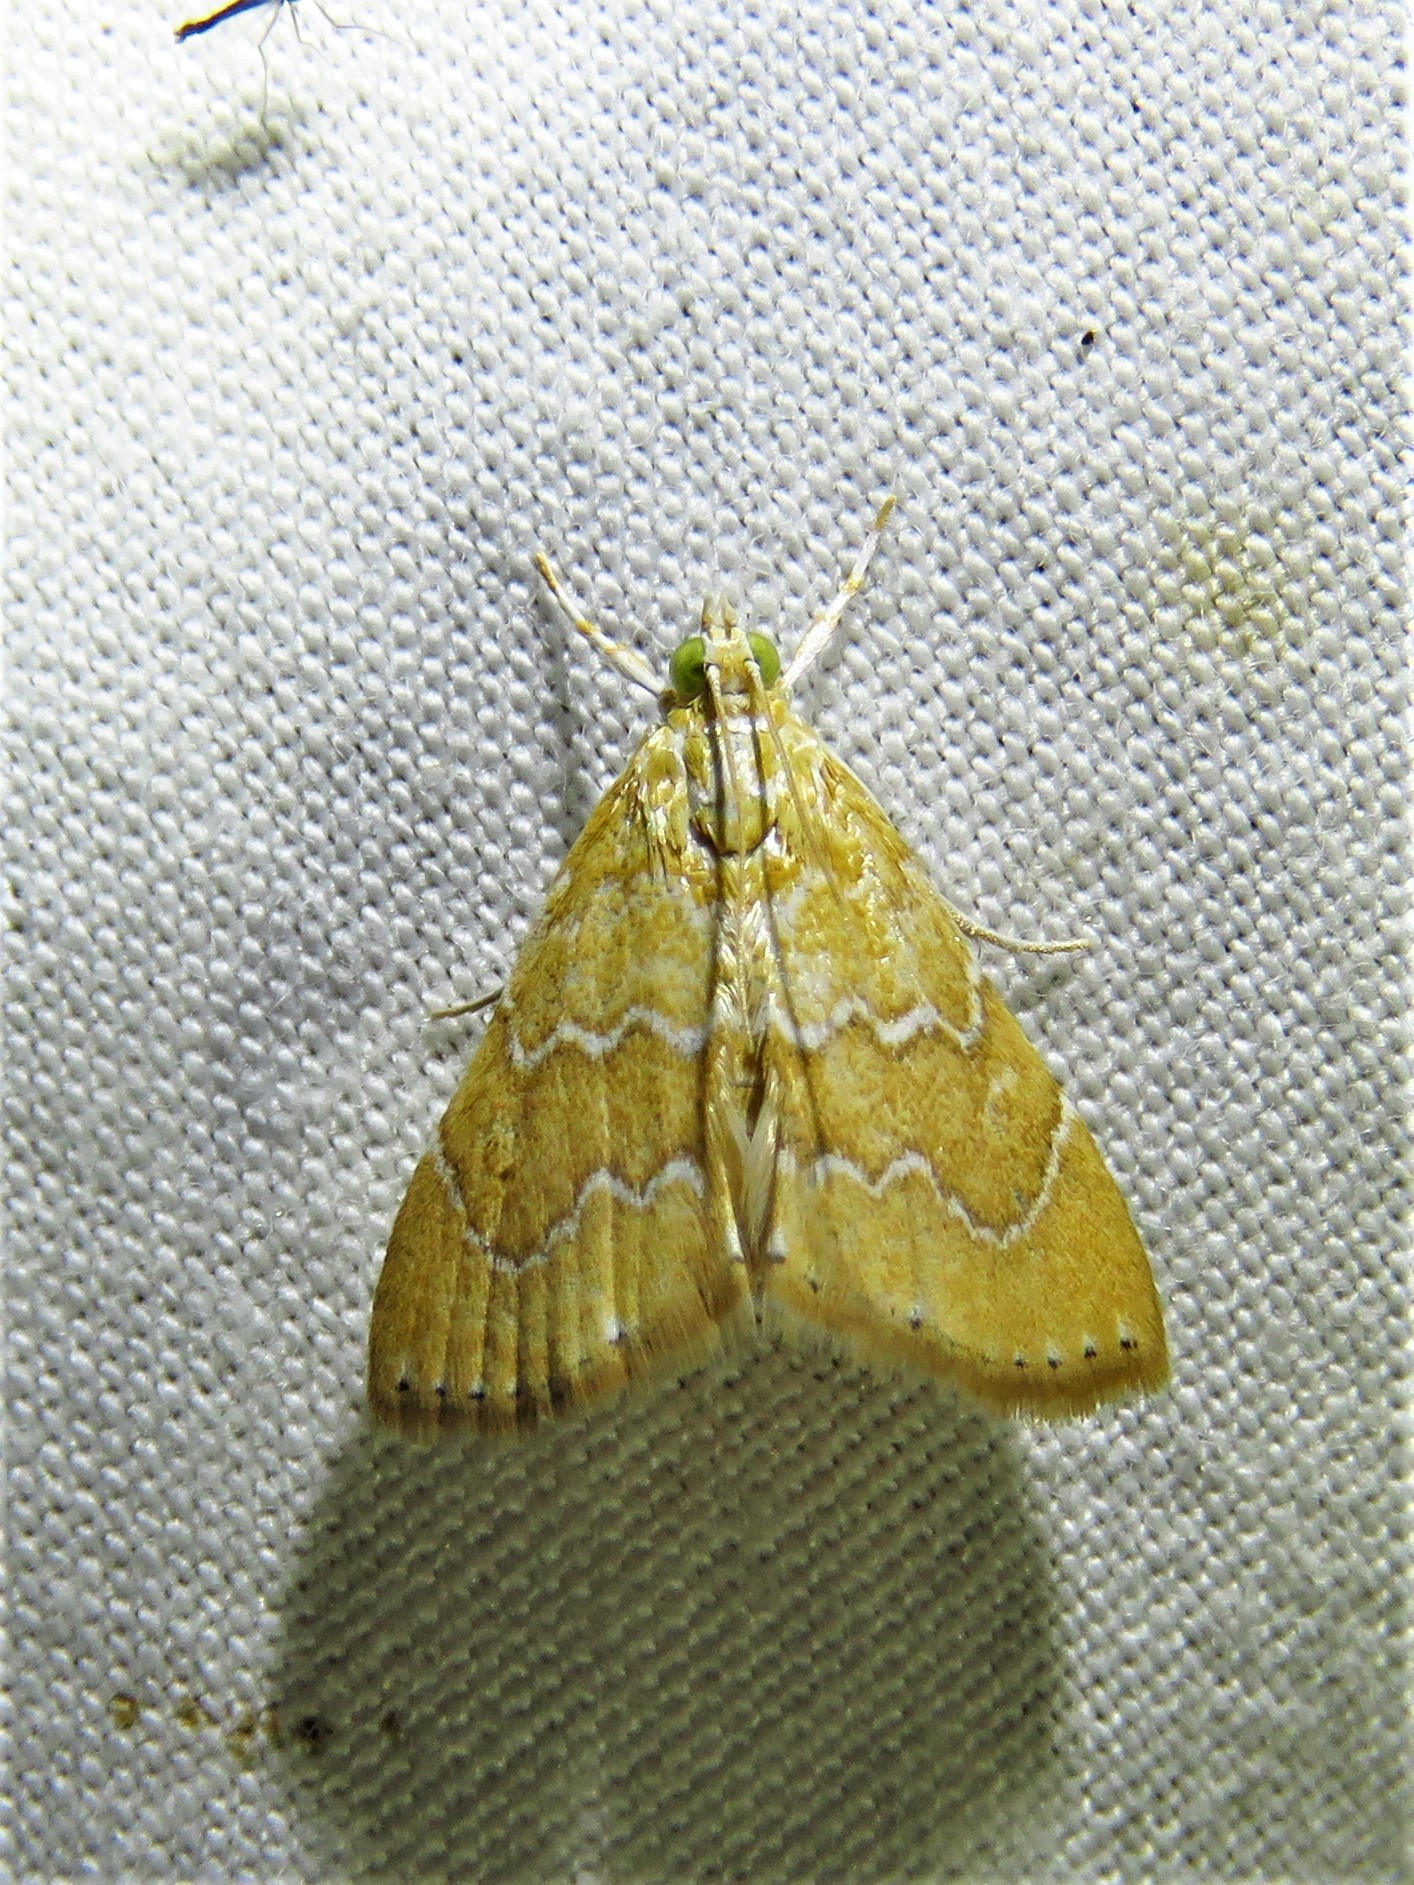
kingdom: Animalia
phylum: Arthropoda
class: Insecta
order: Lepidoptera
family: Crambidae
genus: Glaphyria
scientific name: Glaphyria sesquistrialis
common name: White-roped glaphyria
